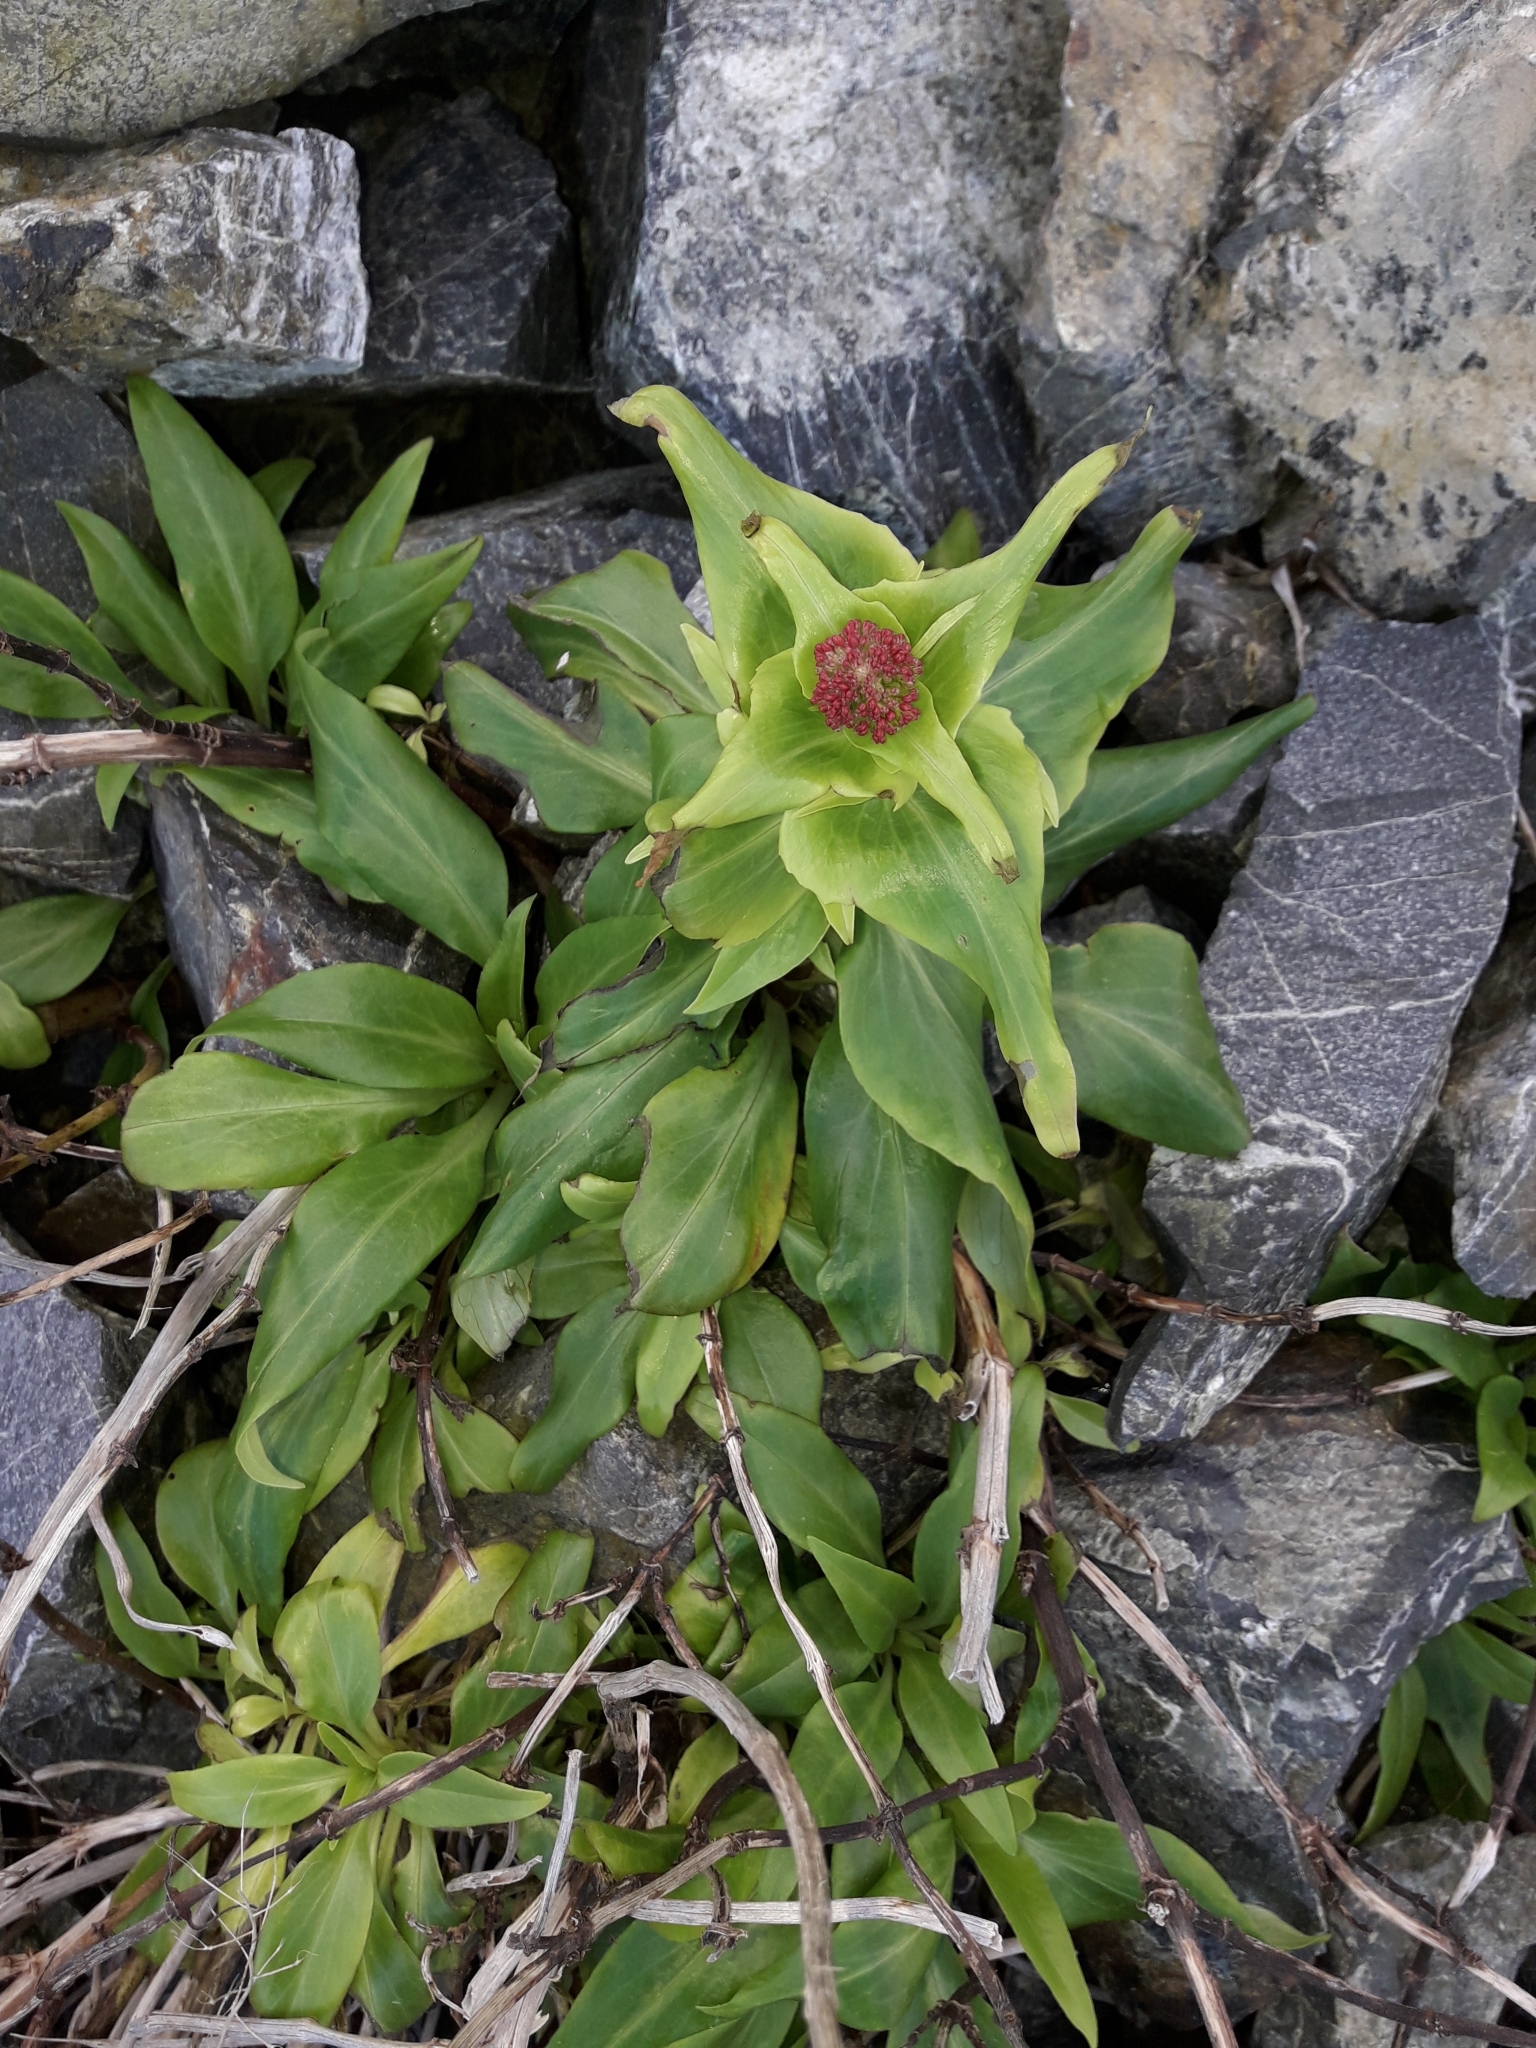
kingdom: Plantae
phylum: Tracheophyta
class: Magnoliopsida
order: Dipsacales
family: Caprifoliaceae
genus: Centranthus
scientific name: Centranthus ruber
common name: Red valerian
